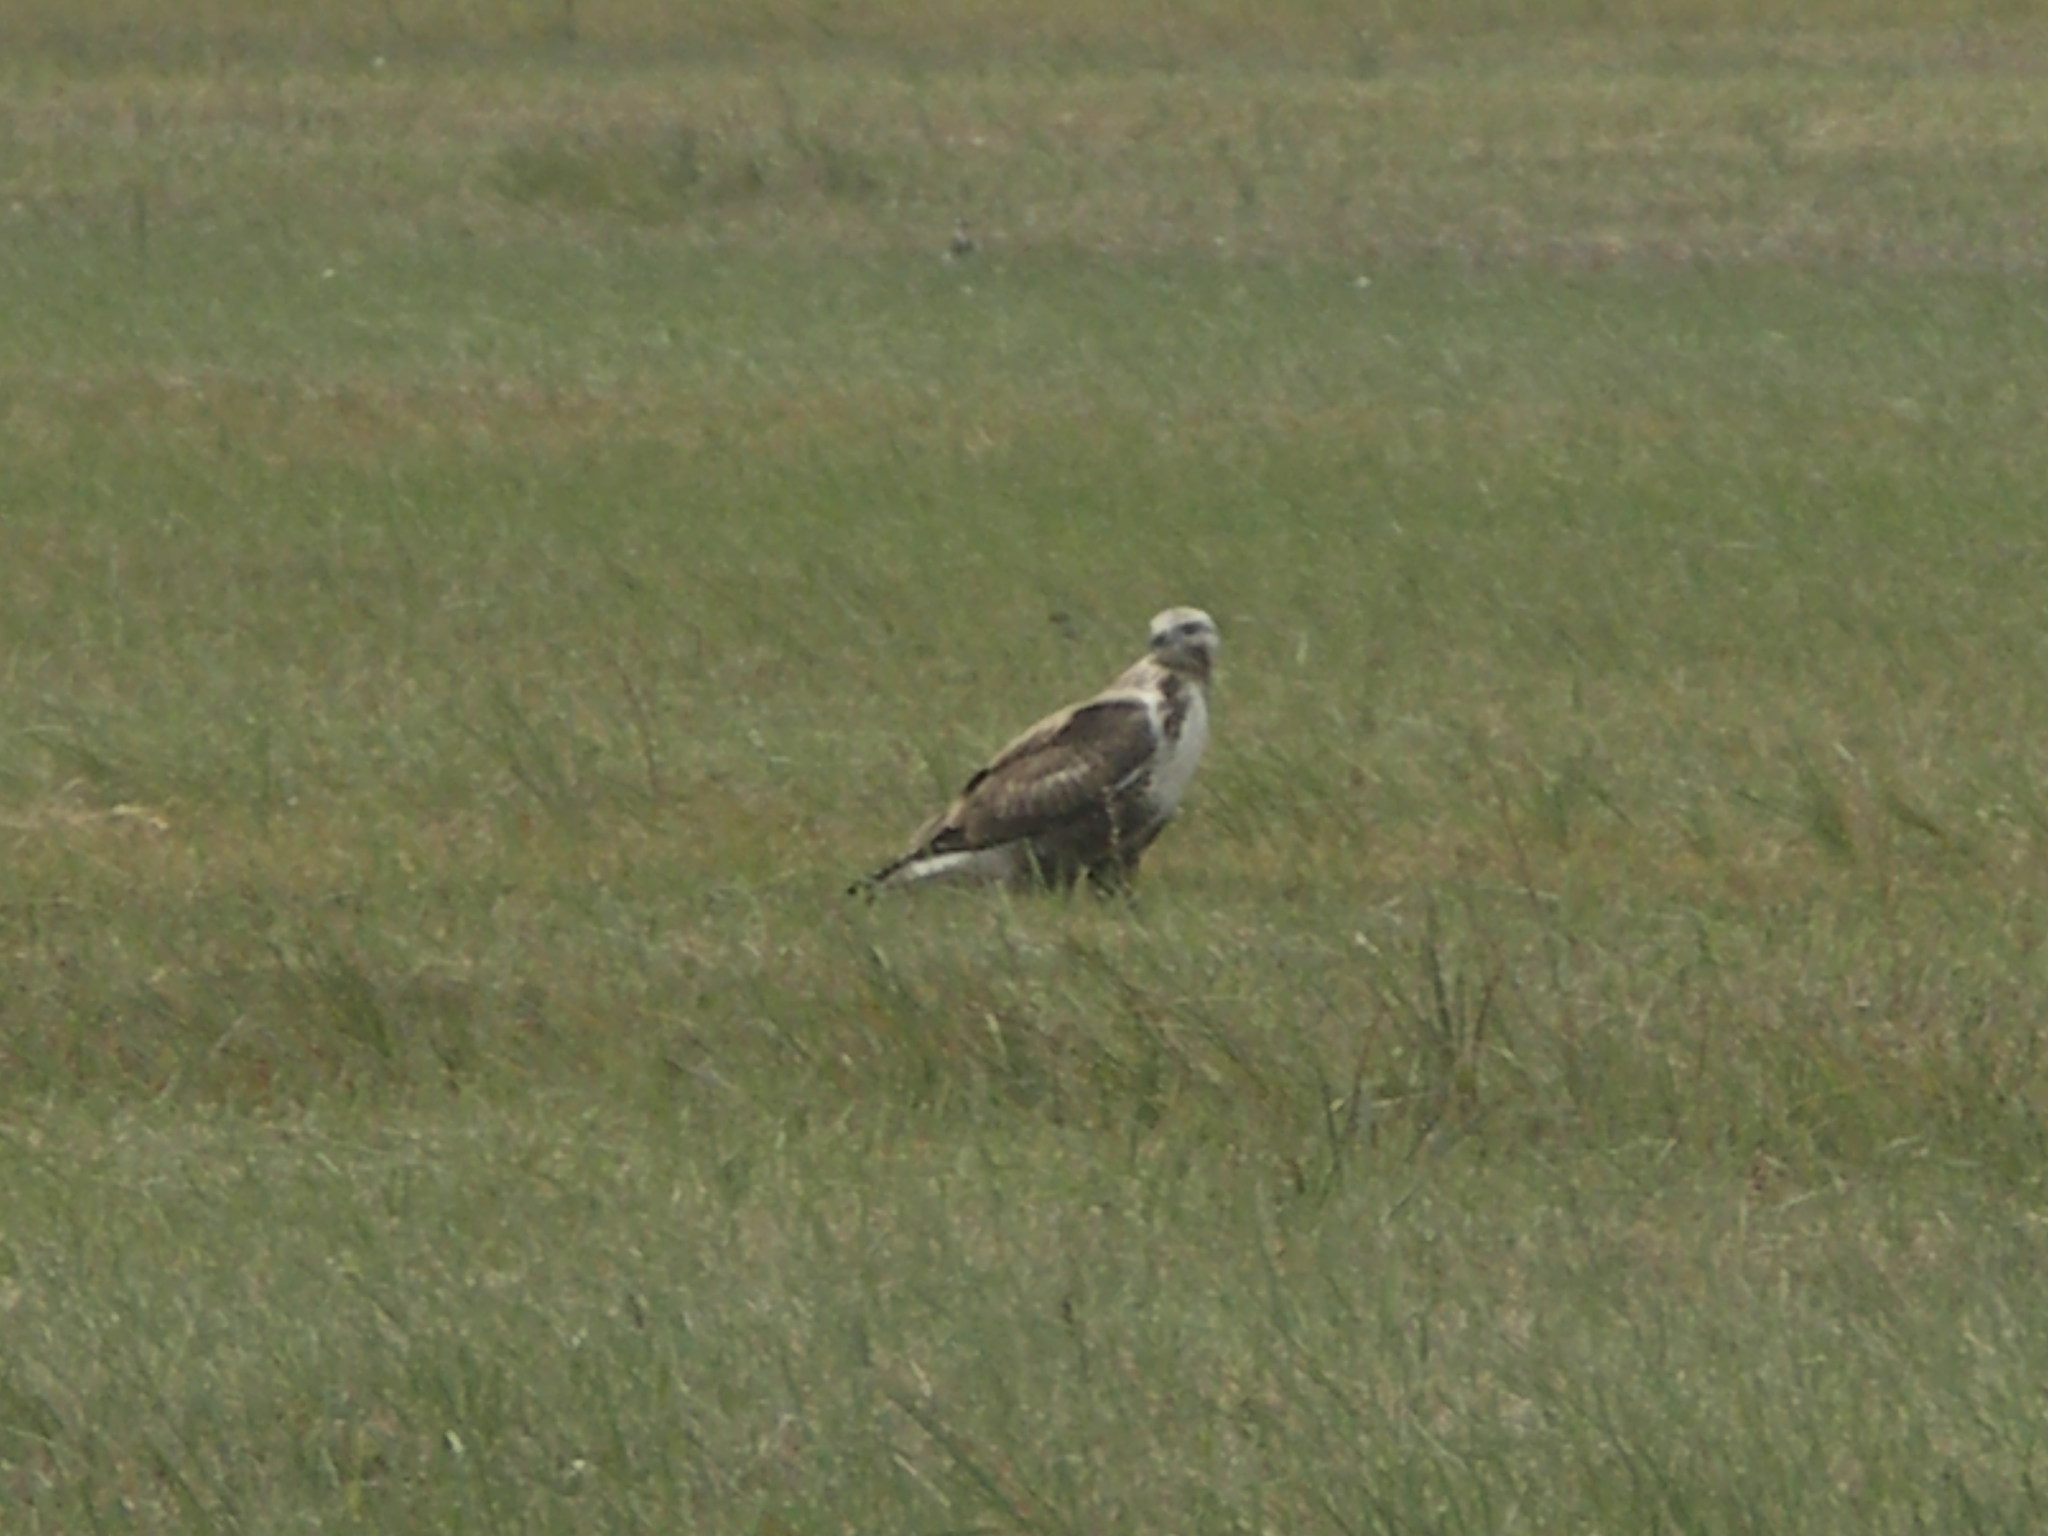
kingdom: Animalia
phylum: Chordata
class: Aves
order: Accipitriformes
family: Accipitridae
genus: Buteo
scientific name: Buteo hemilasius
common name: Upland buzzard
